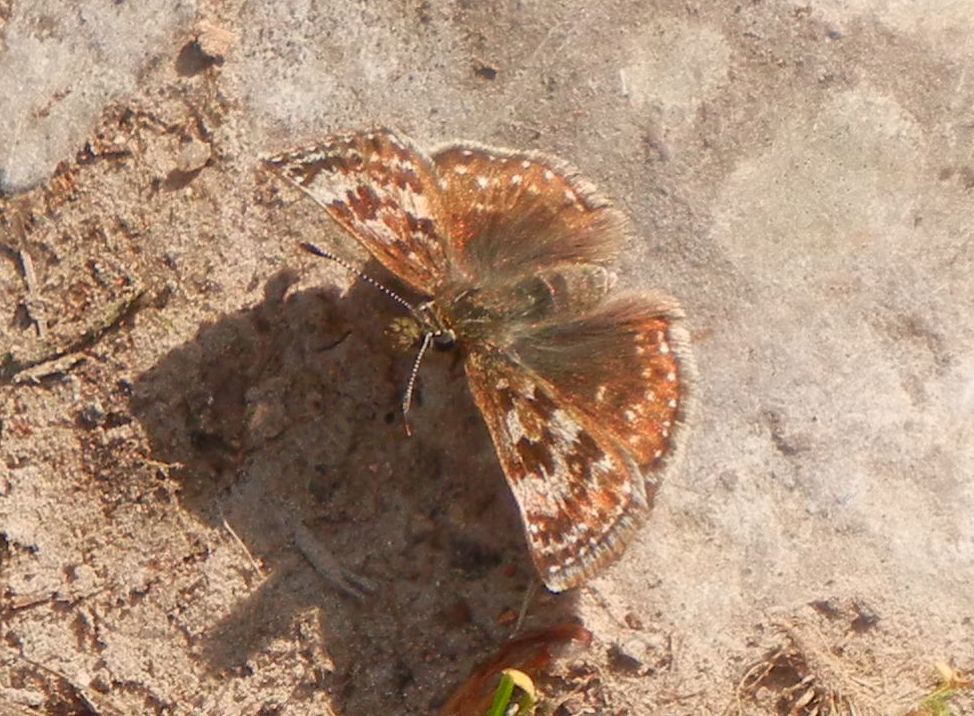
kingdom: Animalia
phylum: Arthropoda
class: Insecta
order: Lepidoptera
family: Hesperiidae
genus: Erynnis
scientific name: Erynnis tages
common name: Dingy skipper
